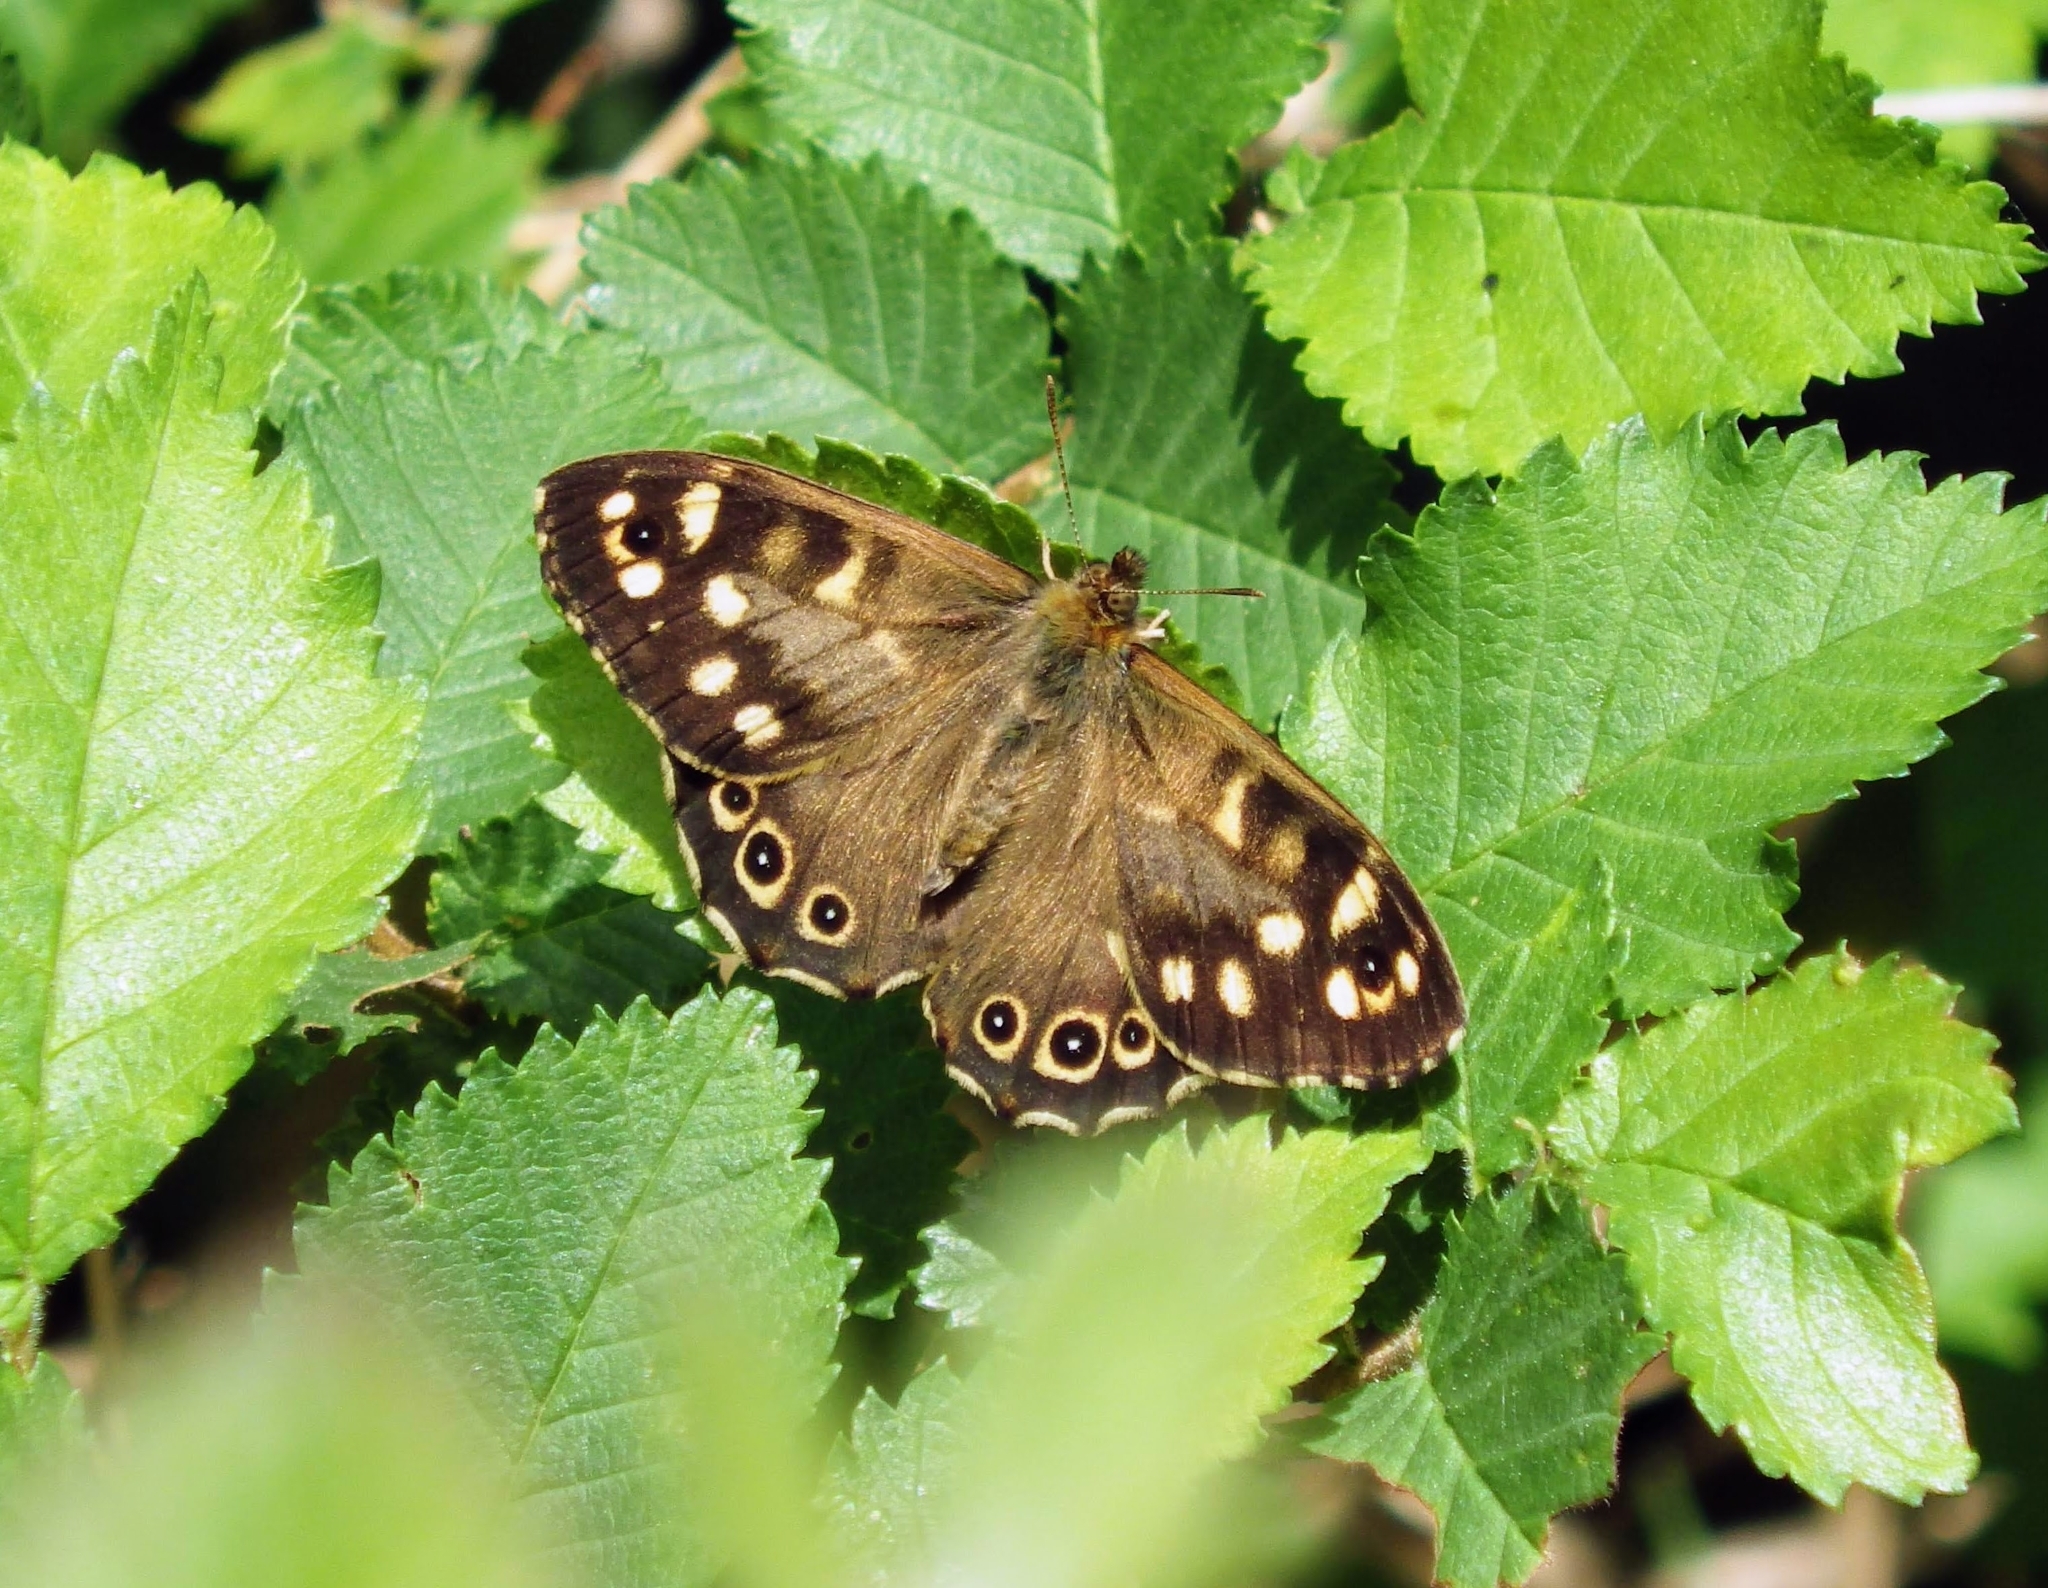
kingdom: Animalia
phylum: Arthropoda
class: Insecta
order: Lepidoptera
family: Nymphalidae
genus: Pararge
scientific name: Pararge aegeria
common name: Speckled wood
